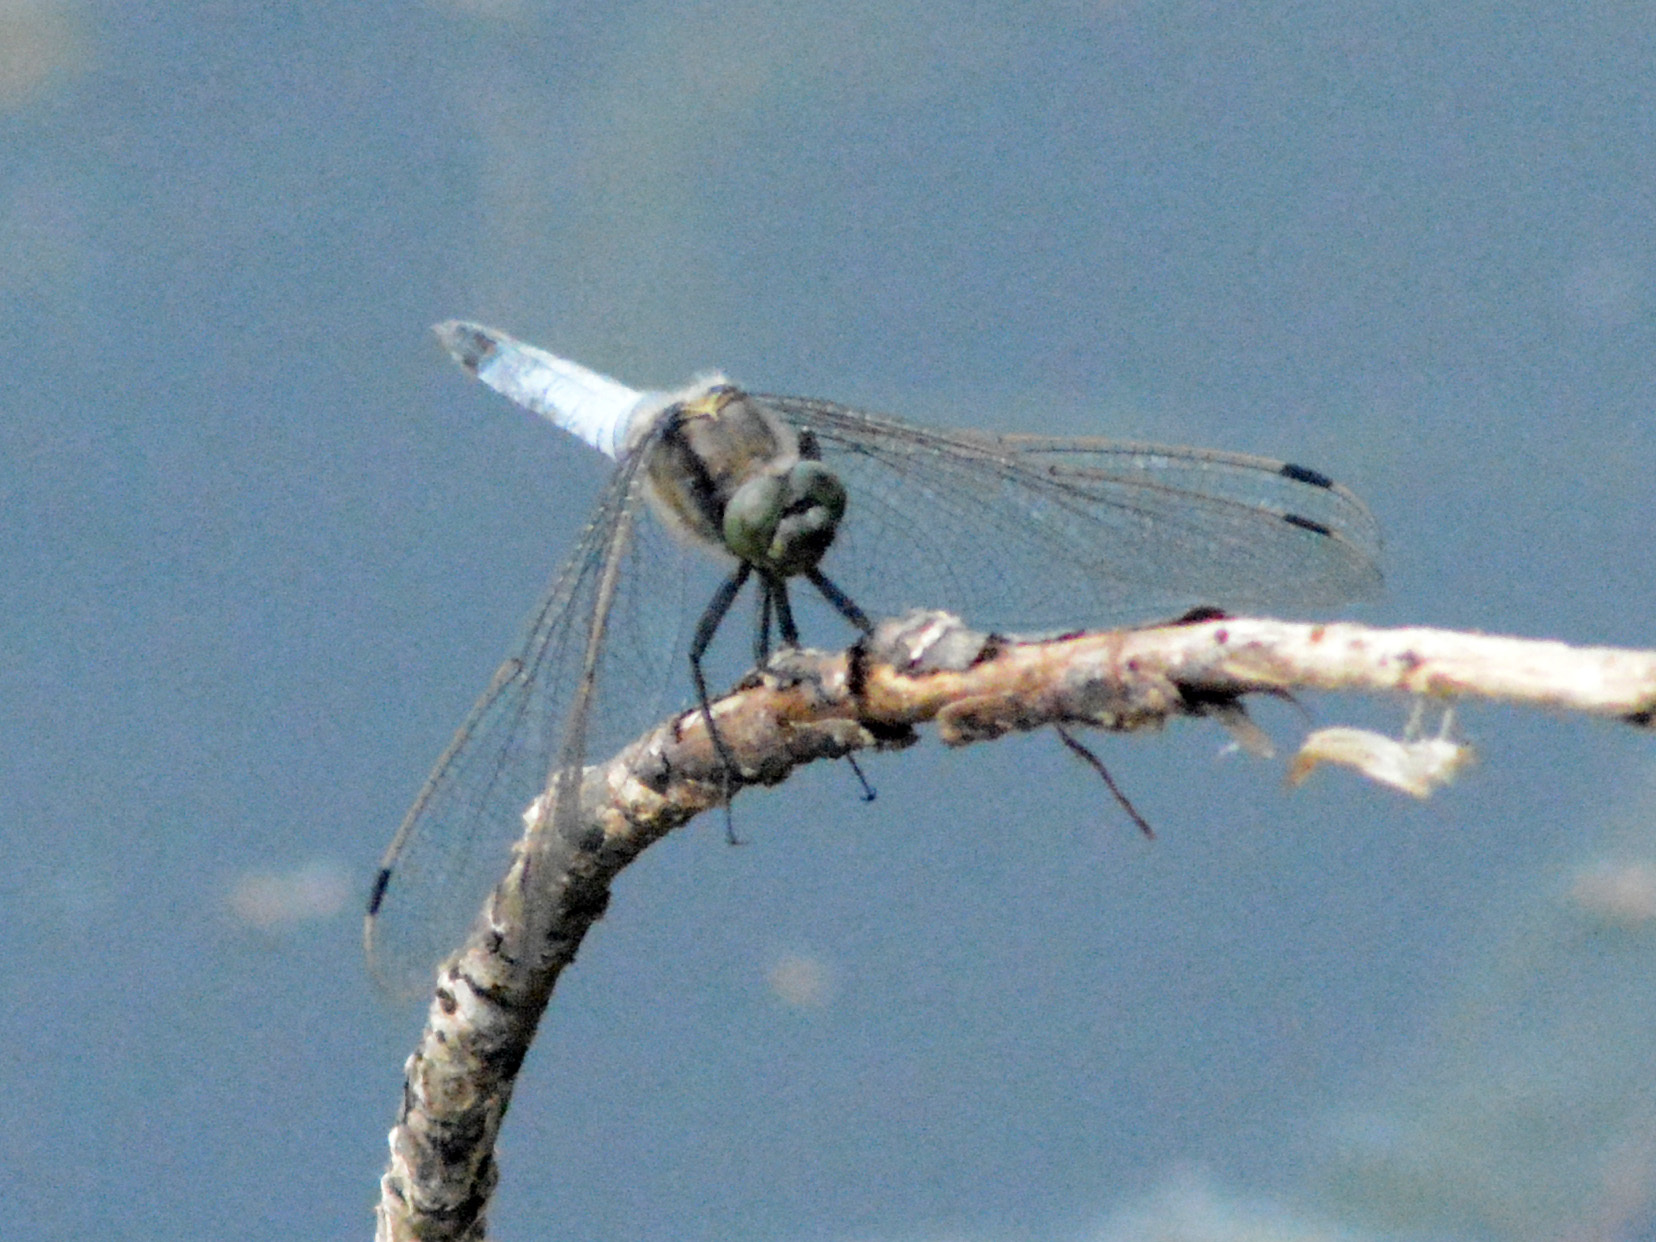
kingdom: Animalia
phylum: Arthropoda
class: Insecta
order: Odonata
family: Libellulidae
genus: Orthetrum
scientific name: Orthetrum cancellatum
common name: Black-tailed skimmer
